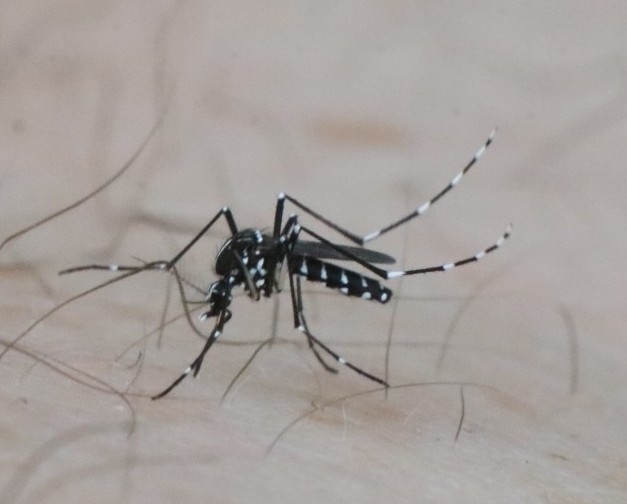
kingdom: Animalia
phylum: Arthropoda
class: Insecta
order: Diptera
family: Culicidae
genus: Aedes
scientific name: Aedes albopictus
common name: Tiger mosquito
